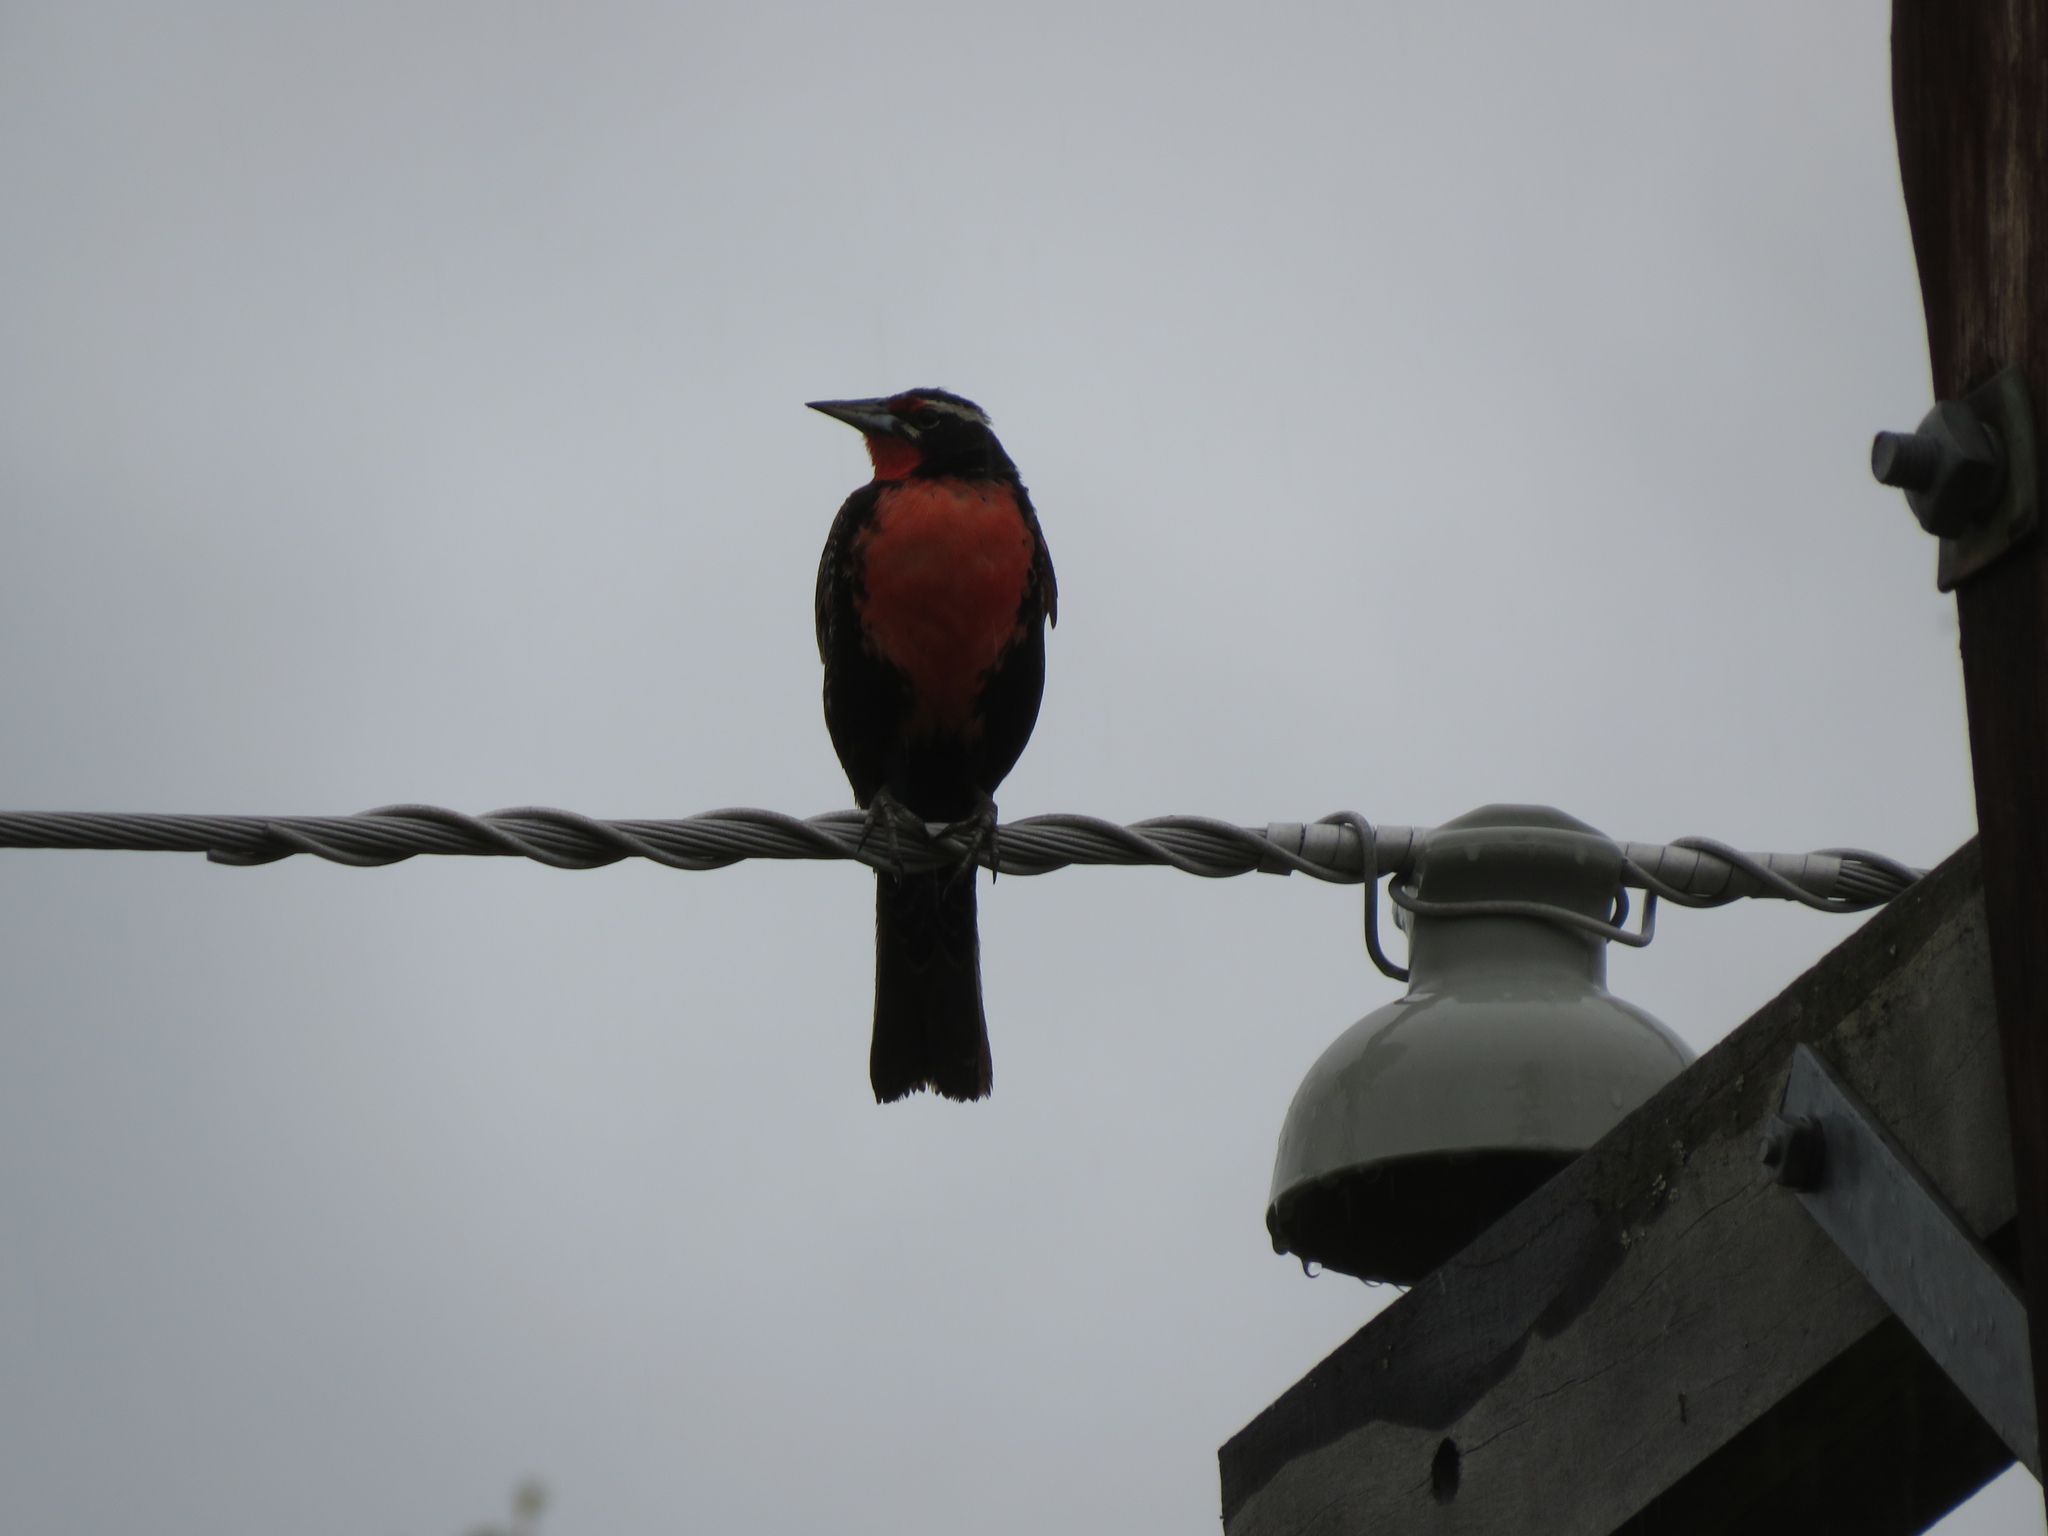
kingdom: Animalia
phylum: Chordata
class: Aves
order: Passeriformes
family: Icteridae
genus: Sturnella
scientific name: Sturnella loyca
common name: Long-tailed meadowlark
